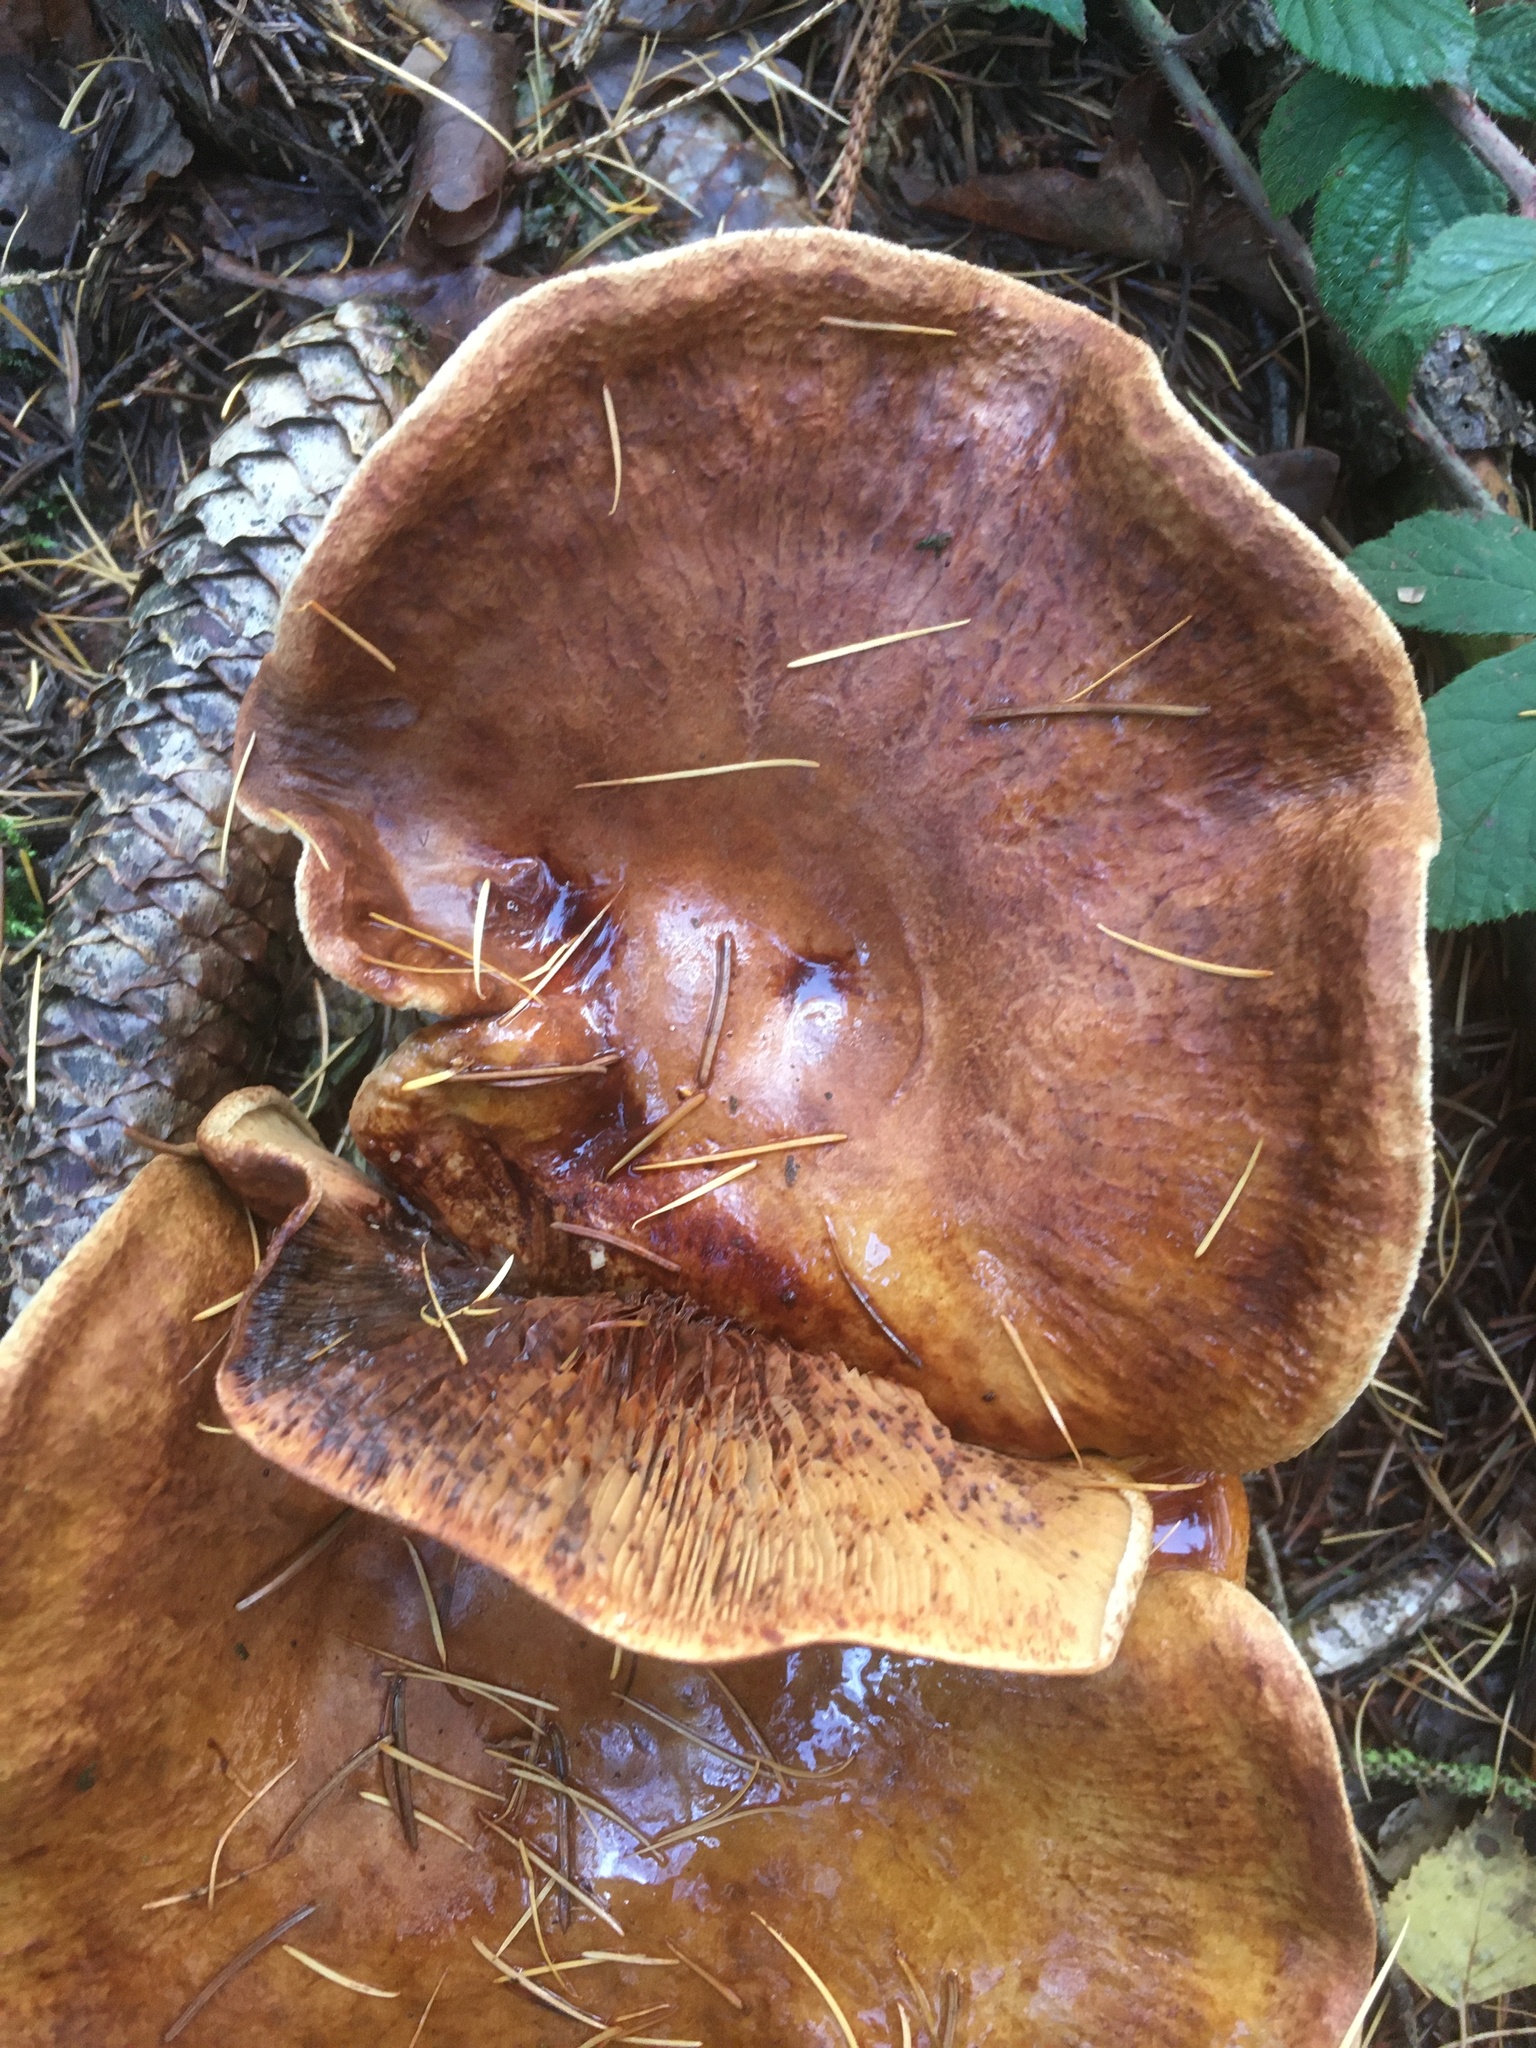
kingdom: Fungi
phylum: Basidiomycota
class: Agaricomycetes
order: Boletales
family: Paxillaceae
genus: Paxillus
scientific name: Paxillus involutus
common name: Brown roll rim
